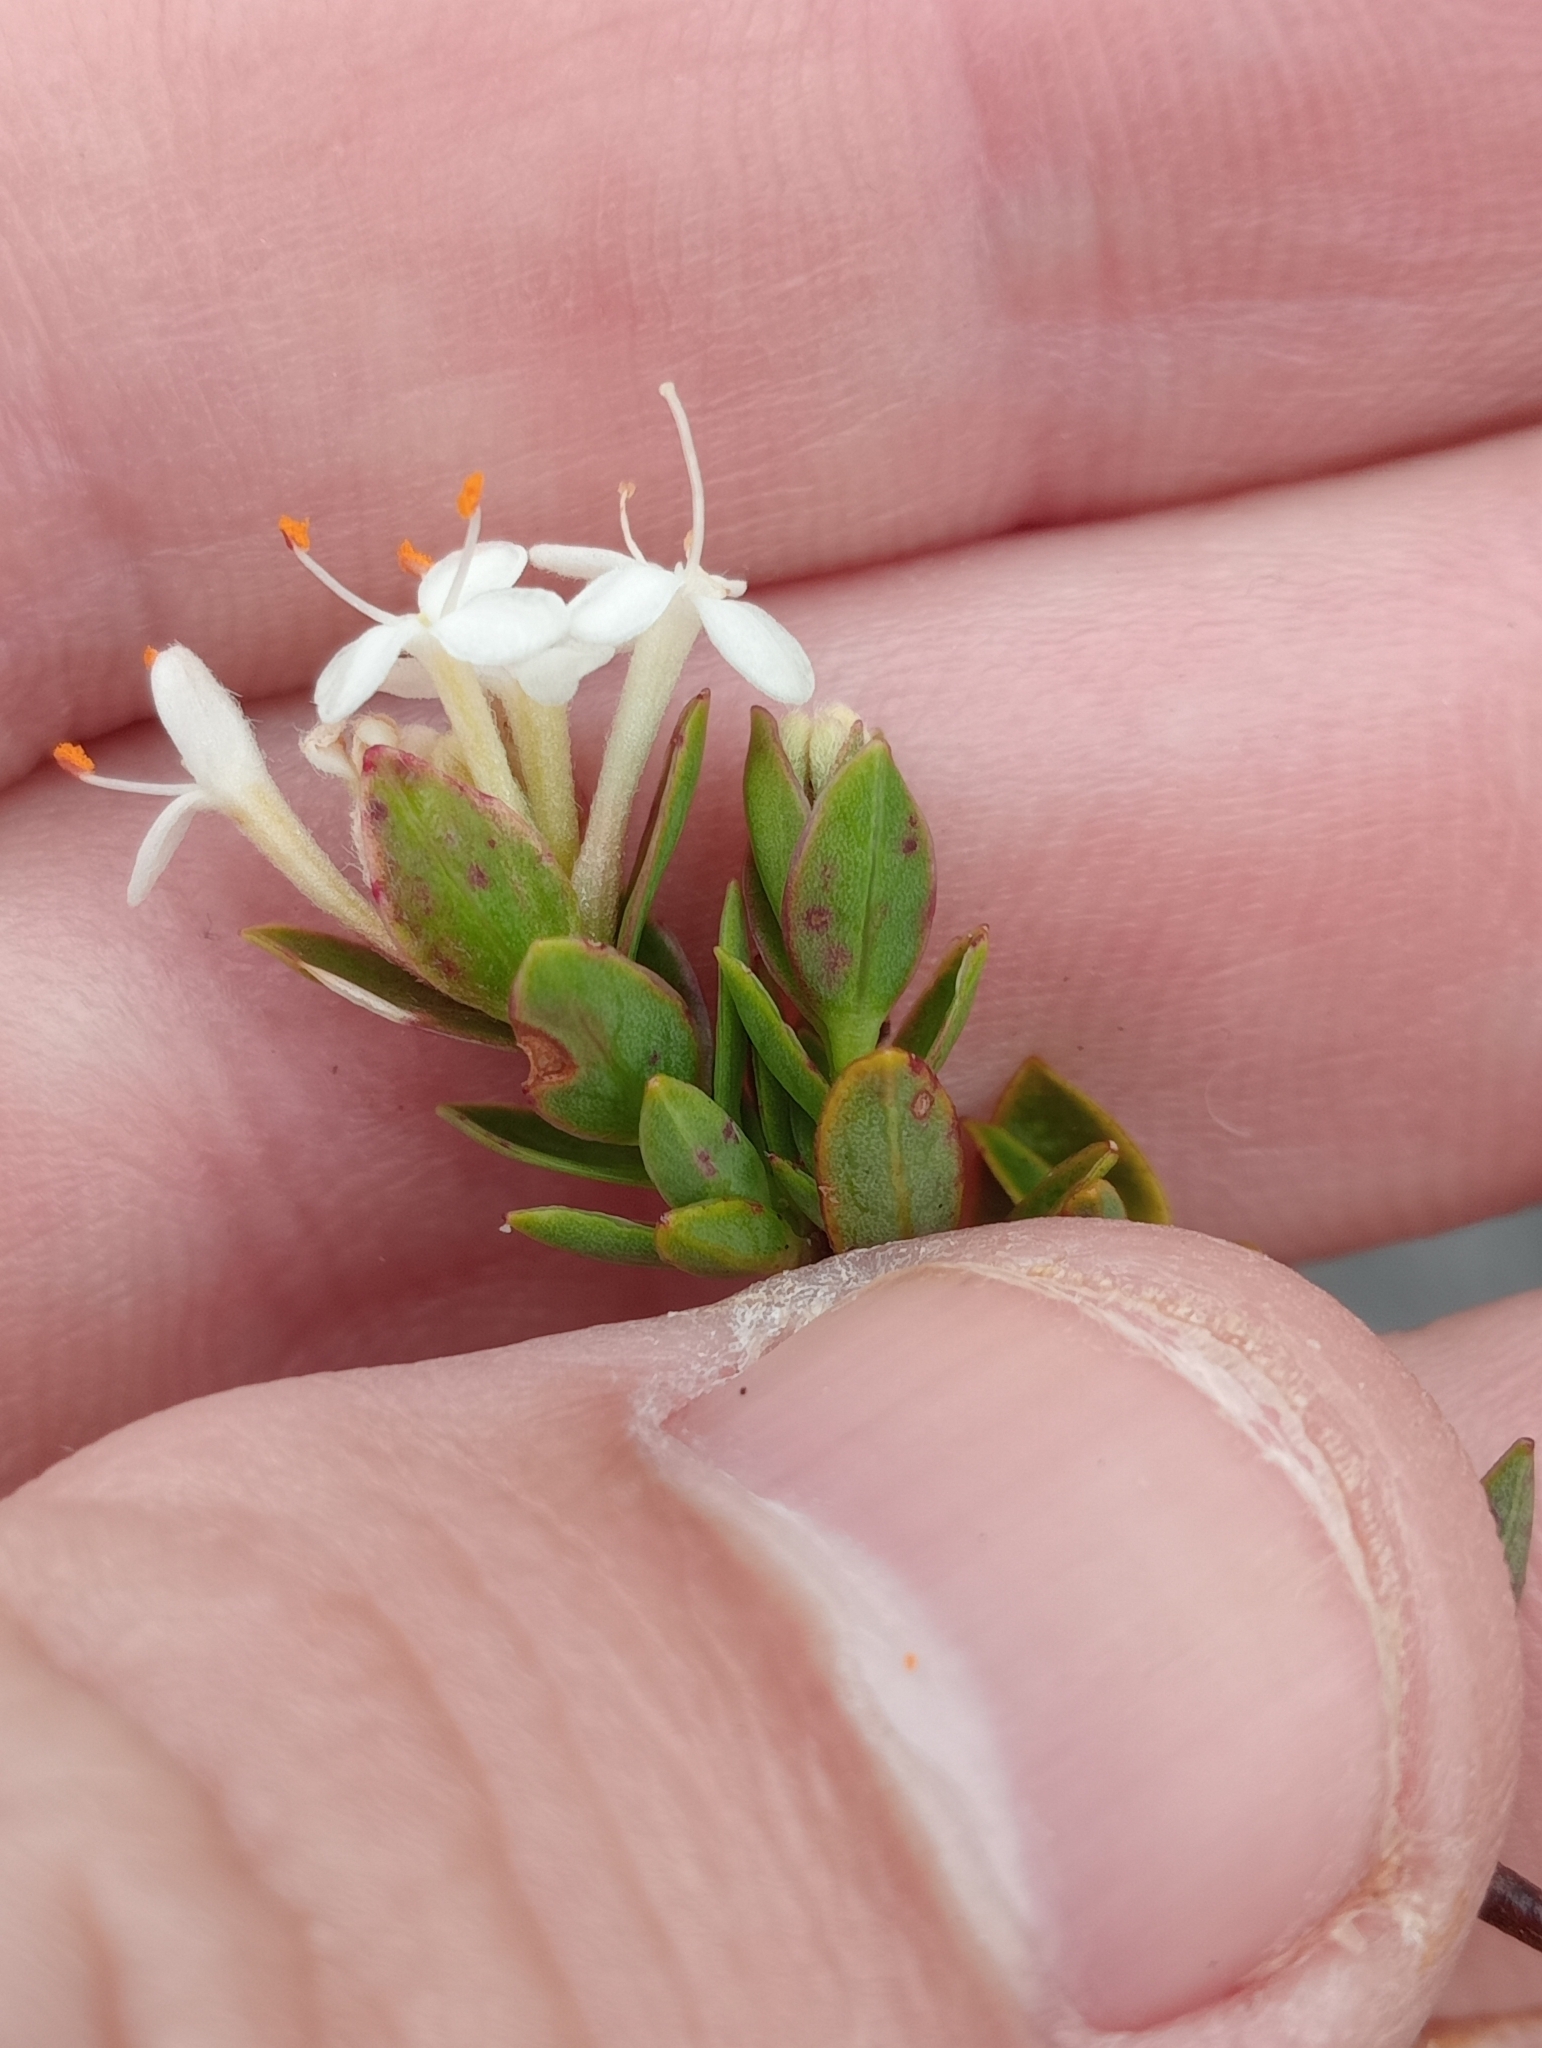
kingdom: Plantae
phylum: Tracheophyta
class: Magnoliopsida
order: Malvales
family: Thymelaeaceae
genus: Pimelea
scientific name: Pimelea gnidia
